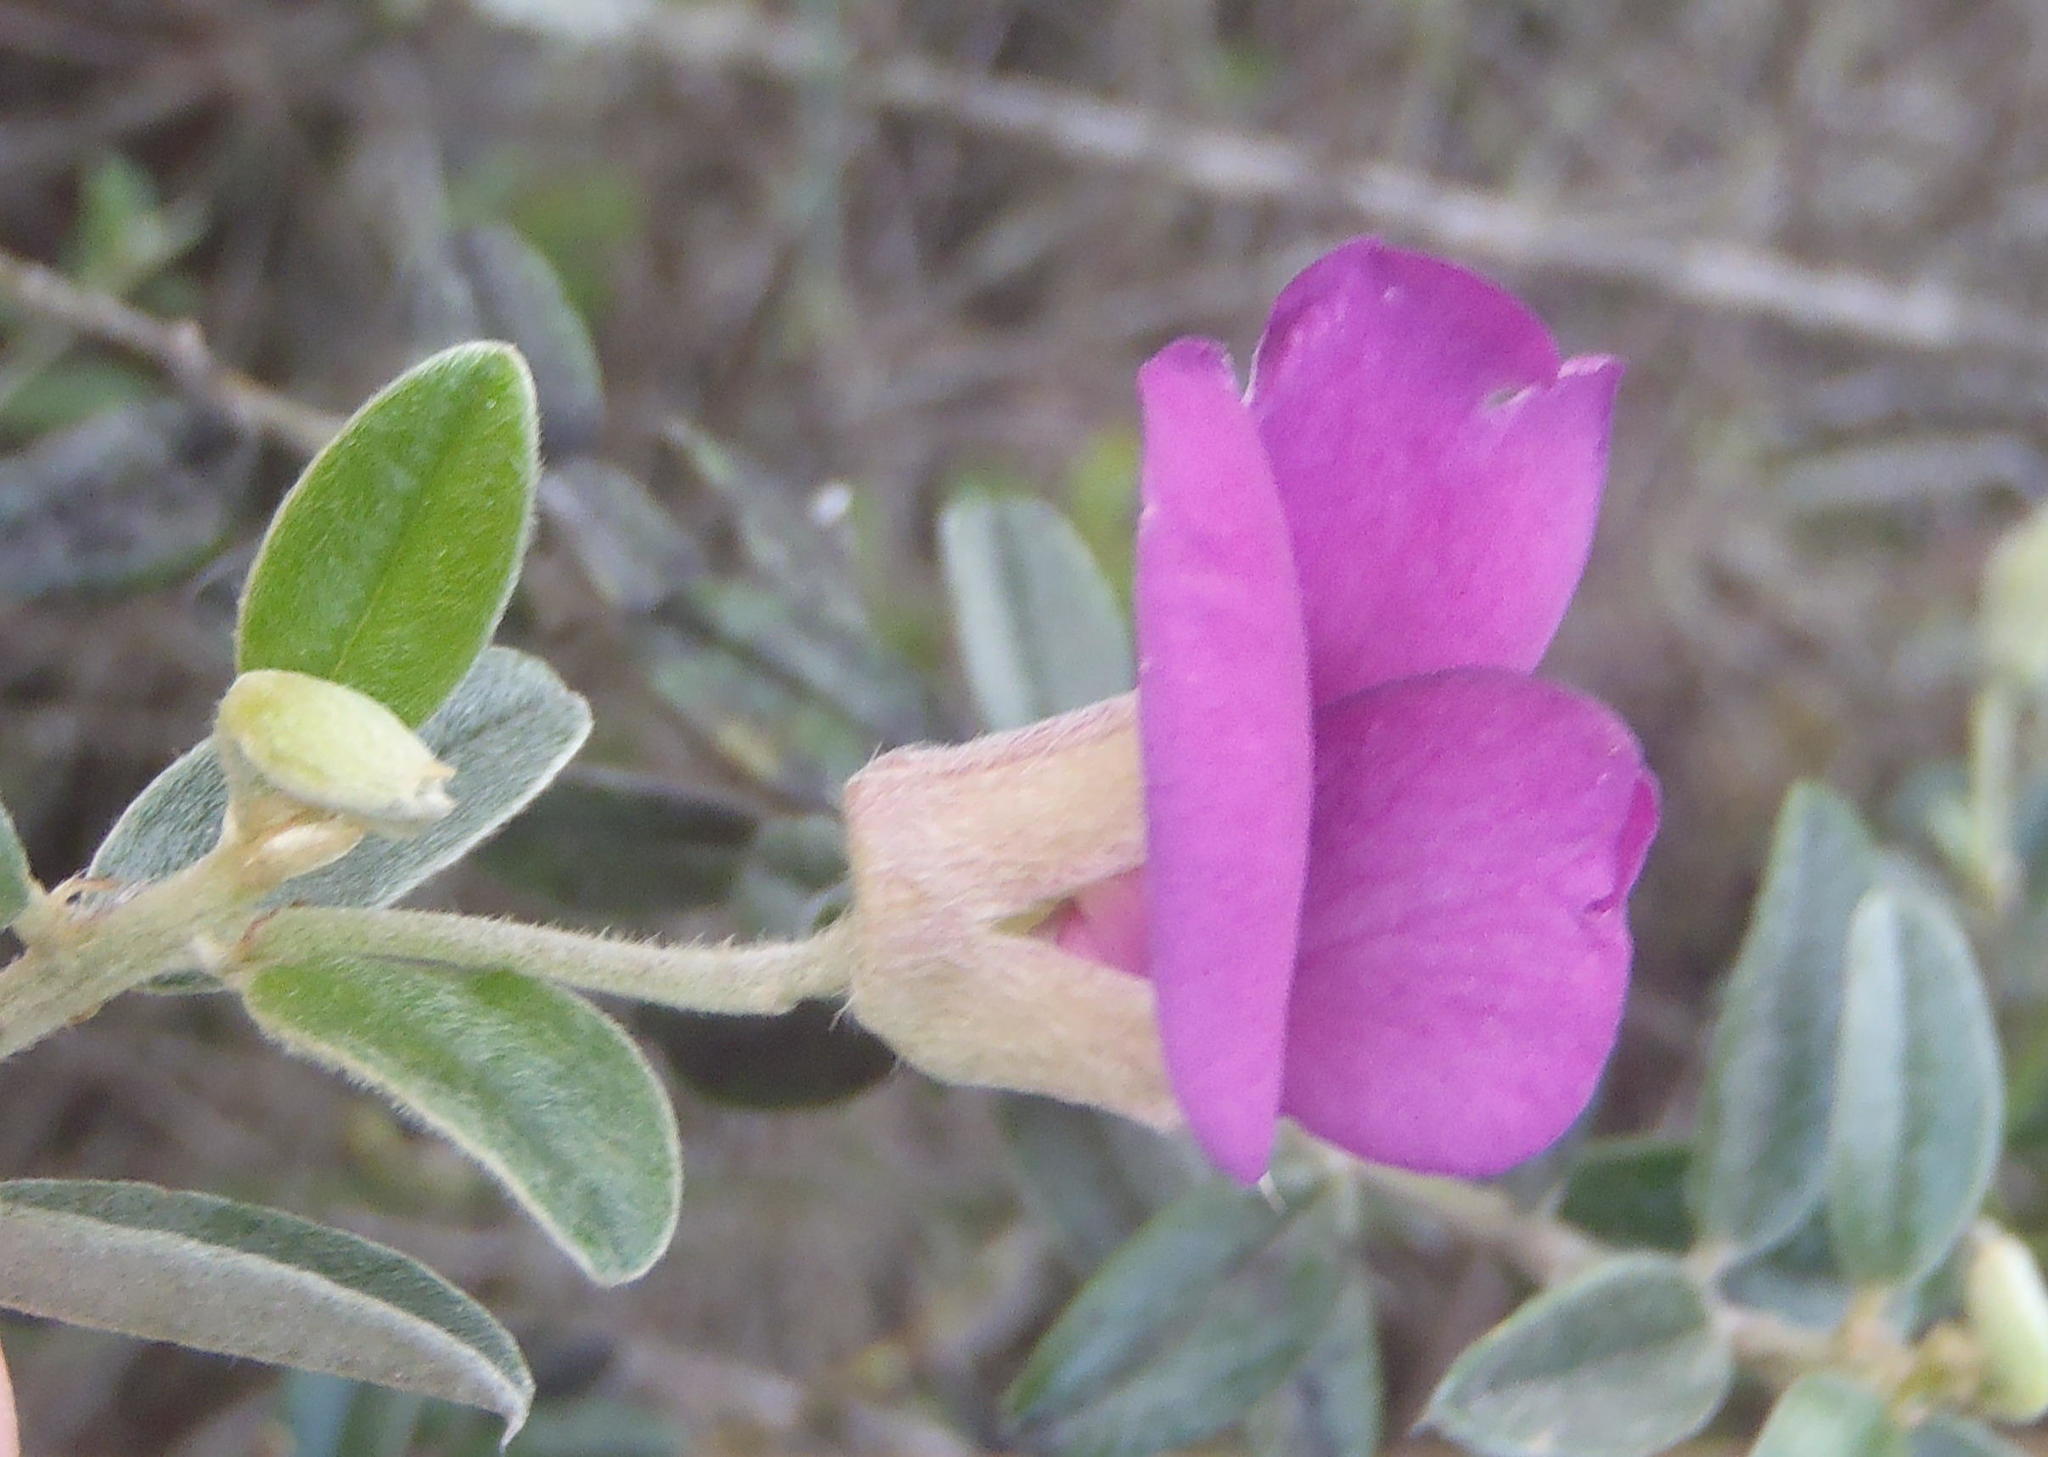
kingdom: Plantae
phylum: Tracheophyta
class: Magnoliopsida
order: Fabales
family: Fabaceae
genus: Podalyria
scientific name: Podalyria burchellii
